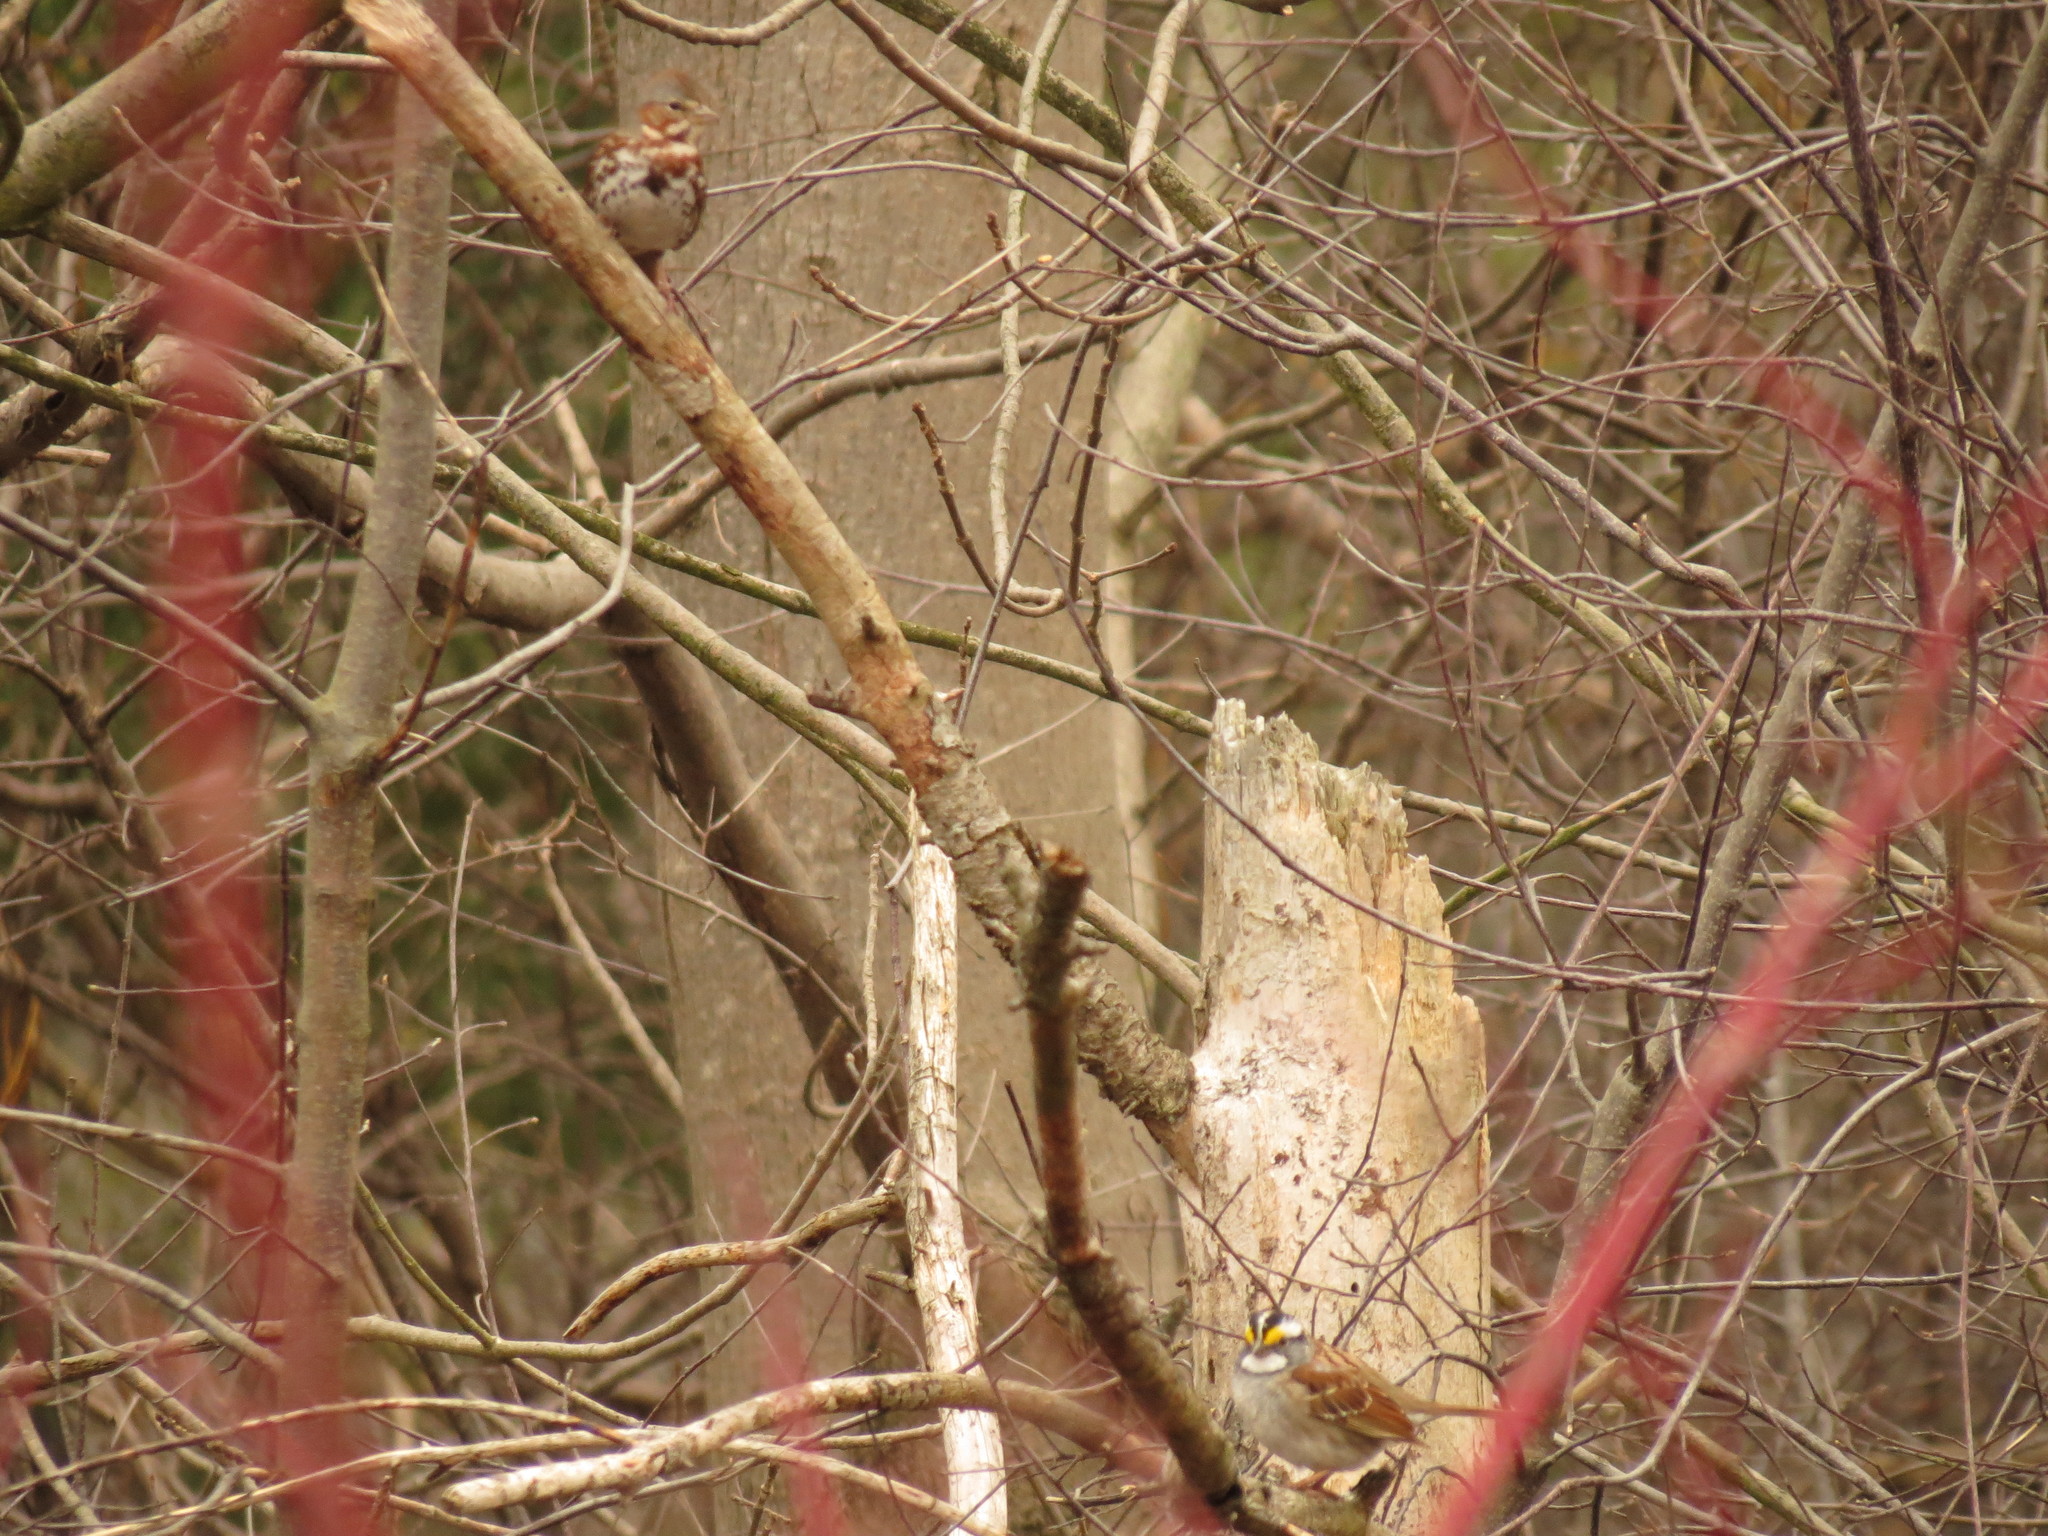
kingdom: Animalia
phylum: Chordata
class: Aves
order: Passeriformes
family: Passerellidae
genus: Zonotrichia
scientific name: Zonotrichia albicollis
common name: White-throated sparrow
